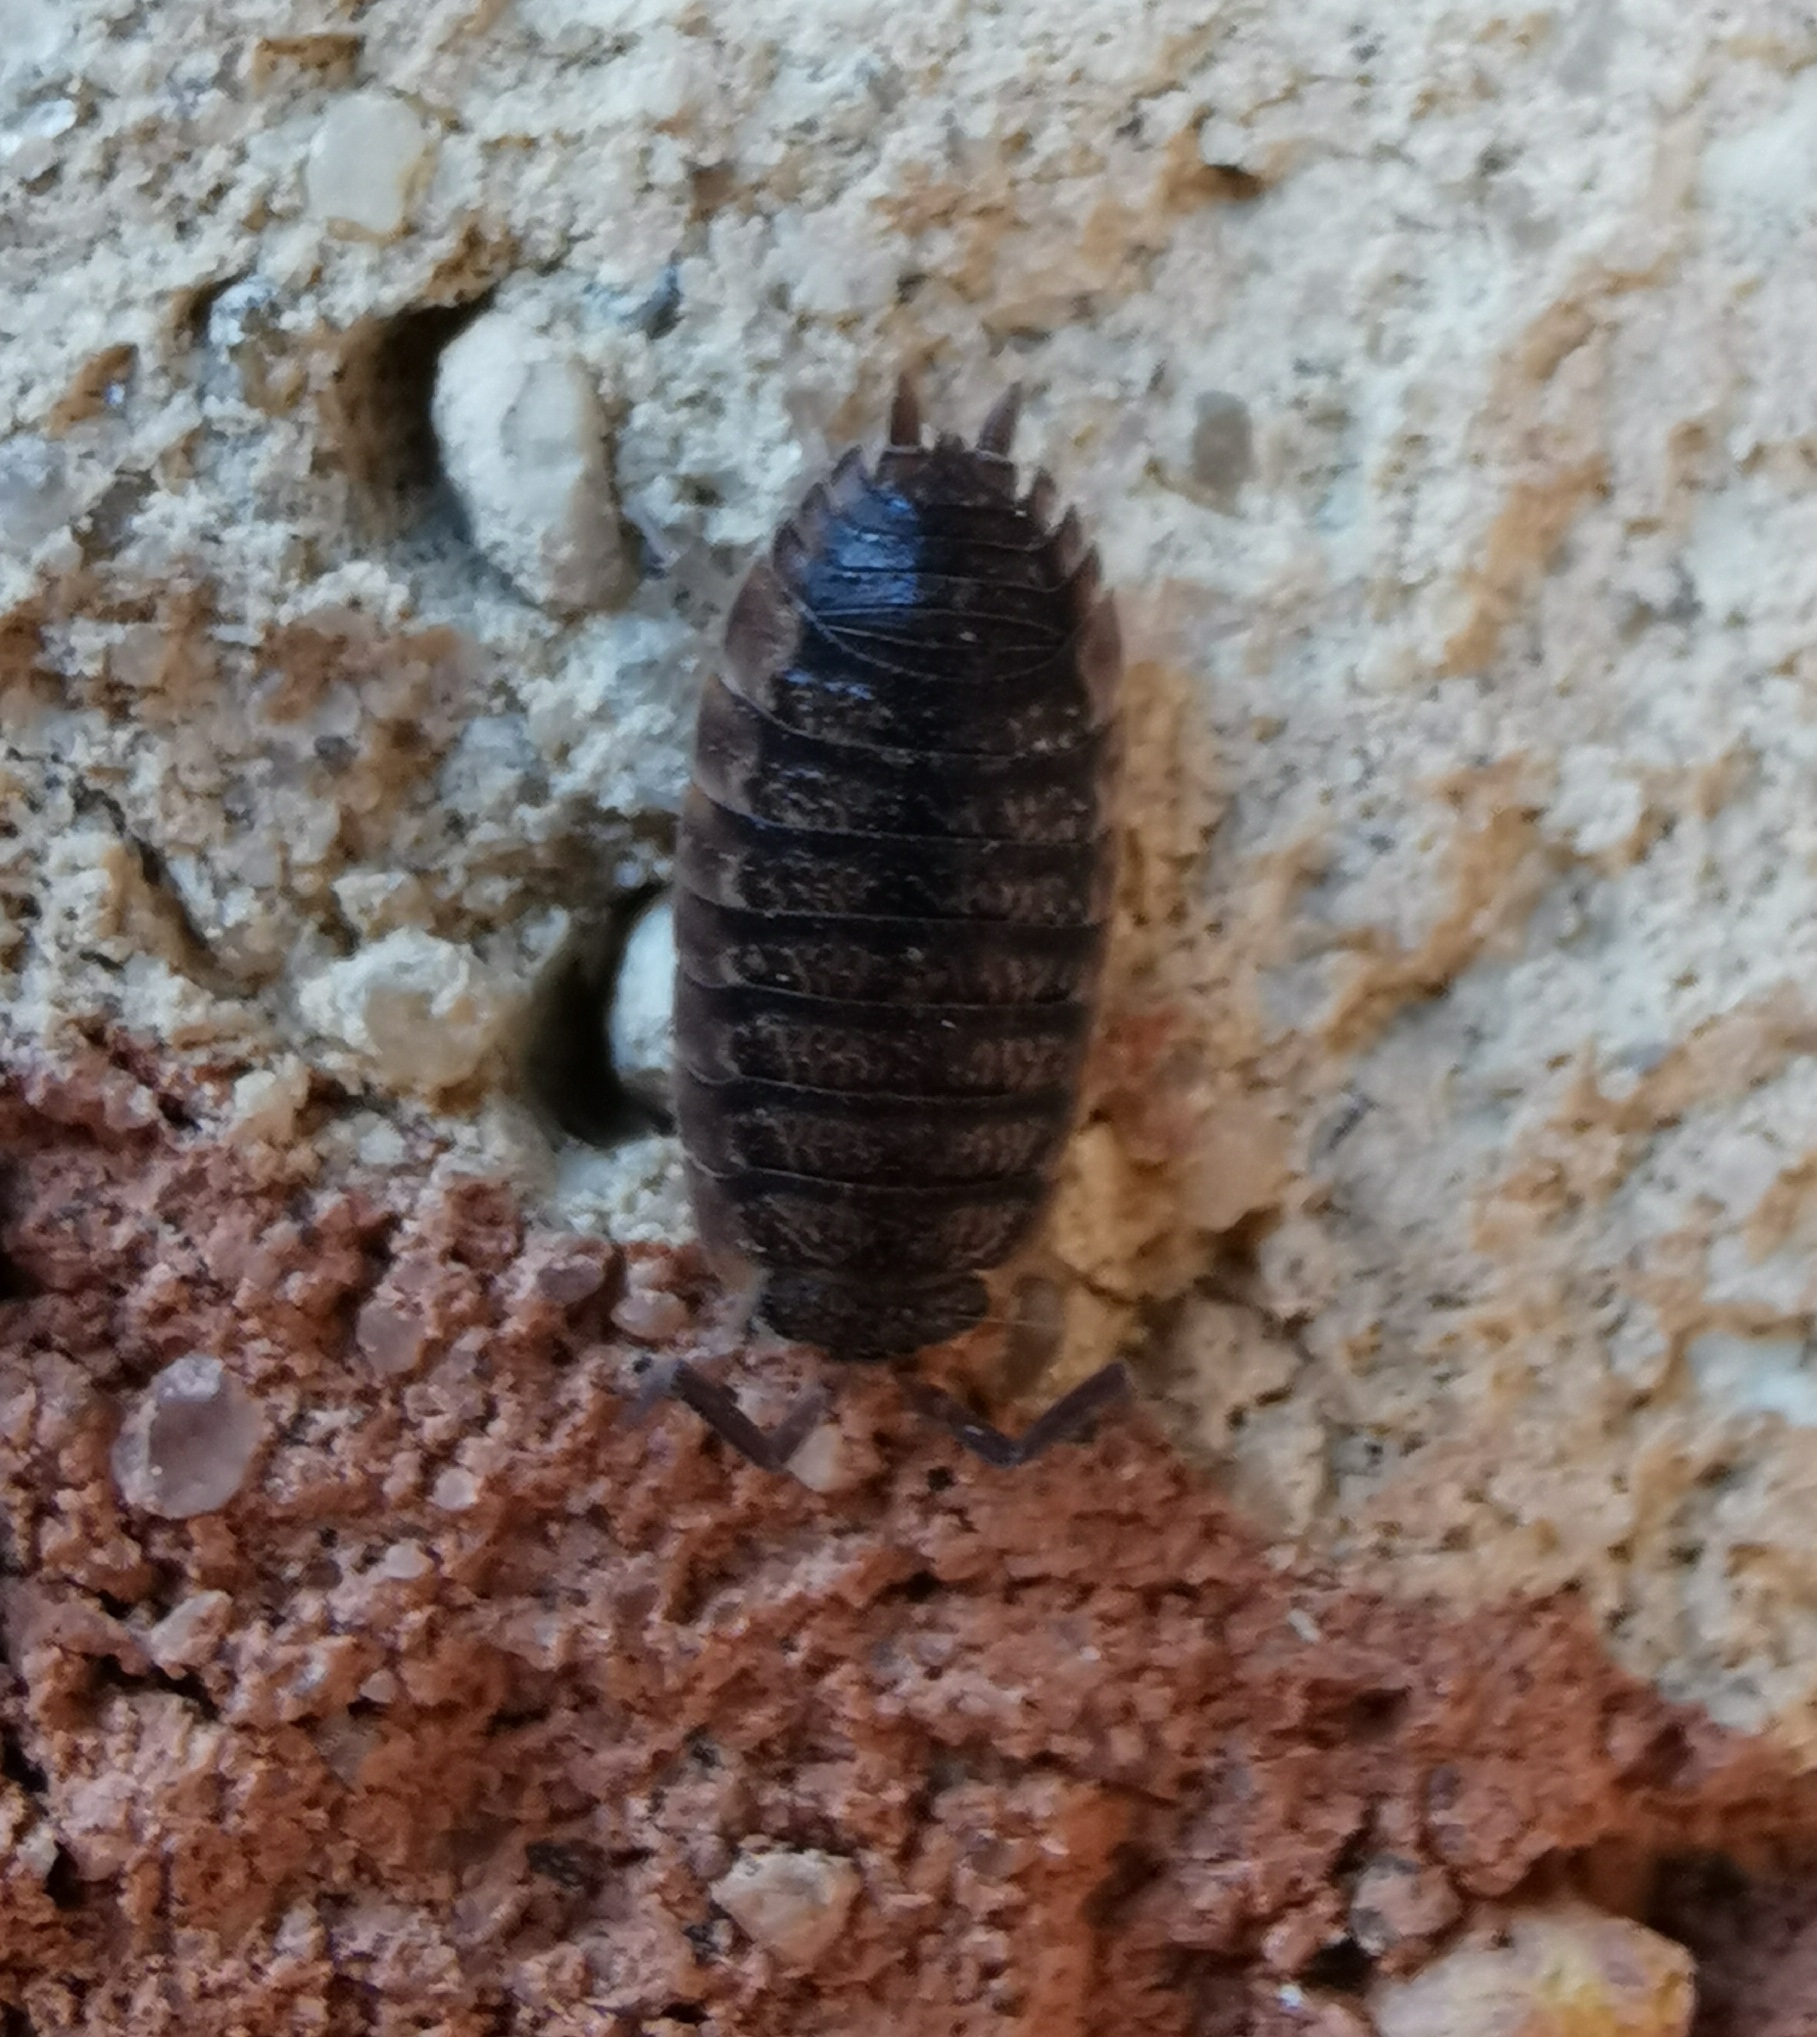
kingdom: Animalia
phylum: Arthropoda
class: Malacostraca
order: Isopoda
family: Porcellionidae
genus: Porcellio
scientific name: Porcellio scaber
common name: Common rough woodlouse
